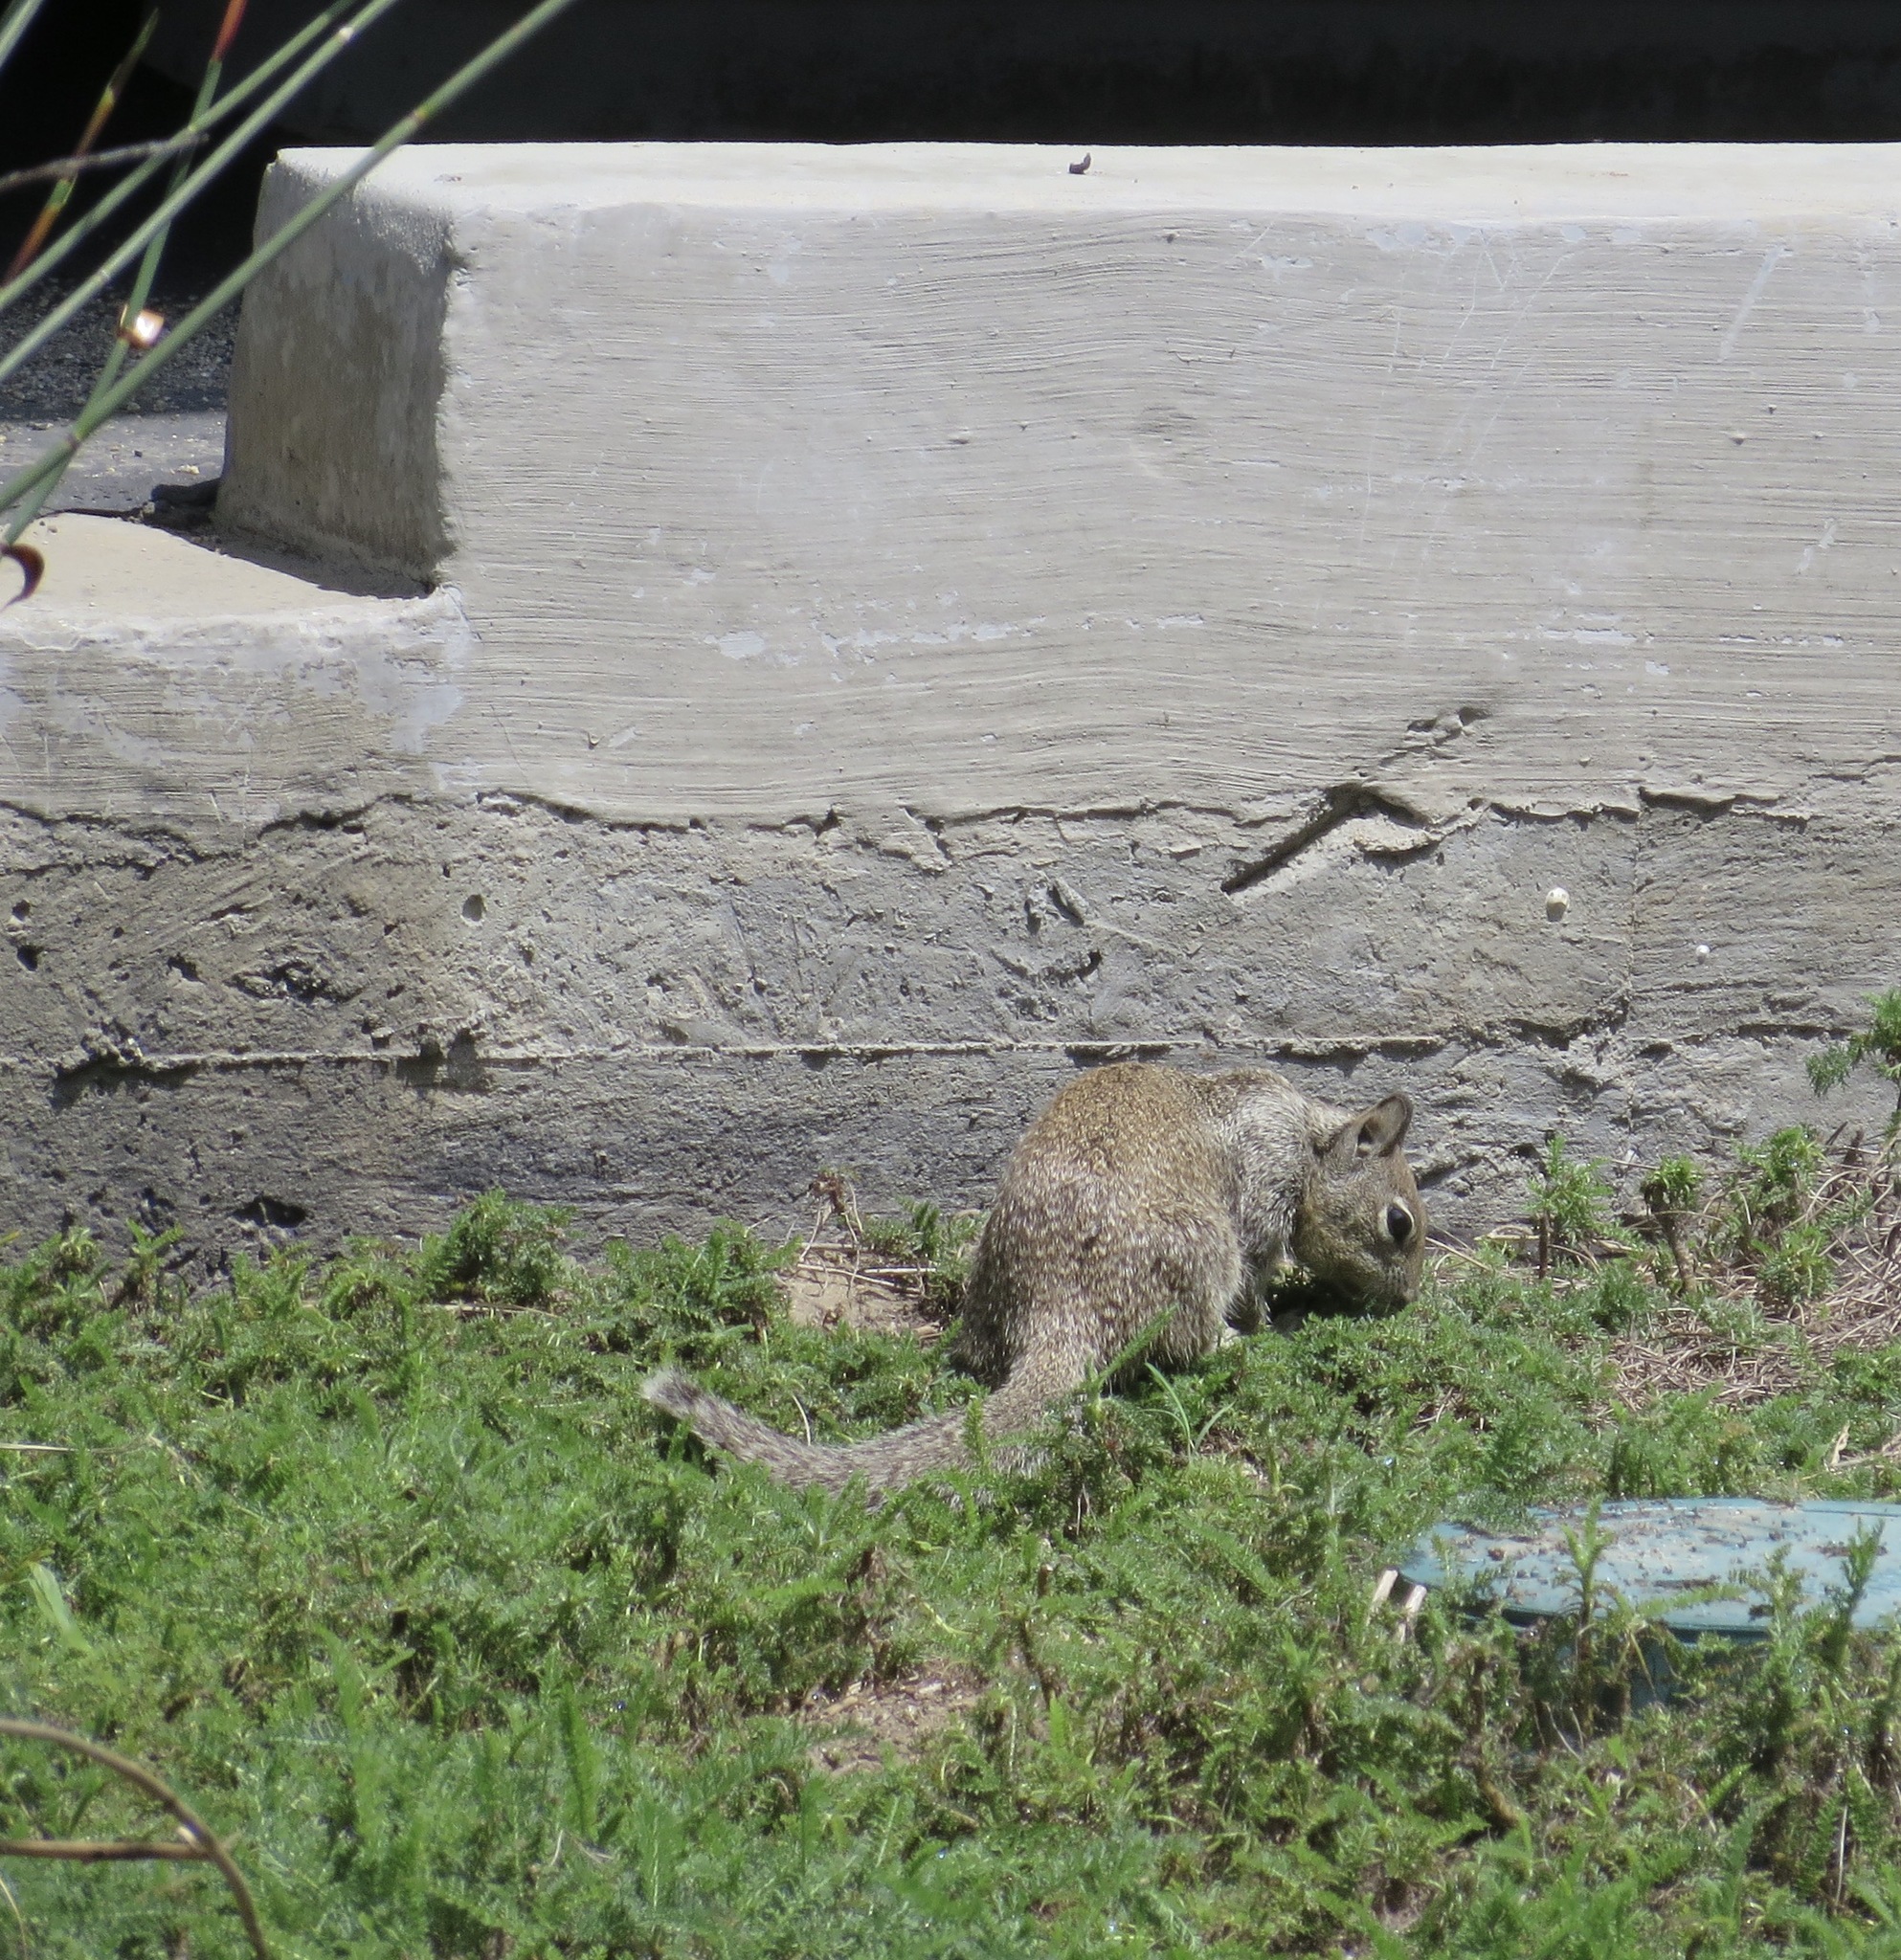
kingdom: Animalia
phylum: Chordata
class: Mammalia
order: Rodentia
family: Sciuridae
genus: Otospermophilus
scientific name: Otospermophilus beecheyi
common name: California ground squirrel
